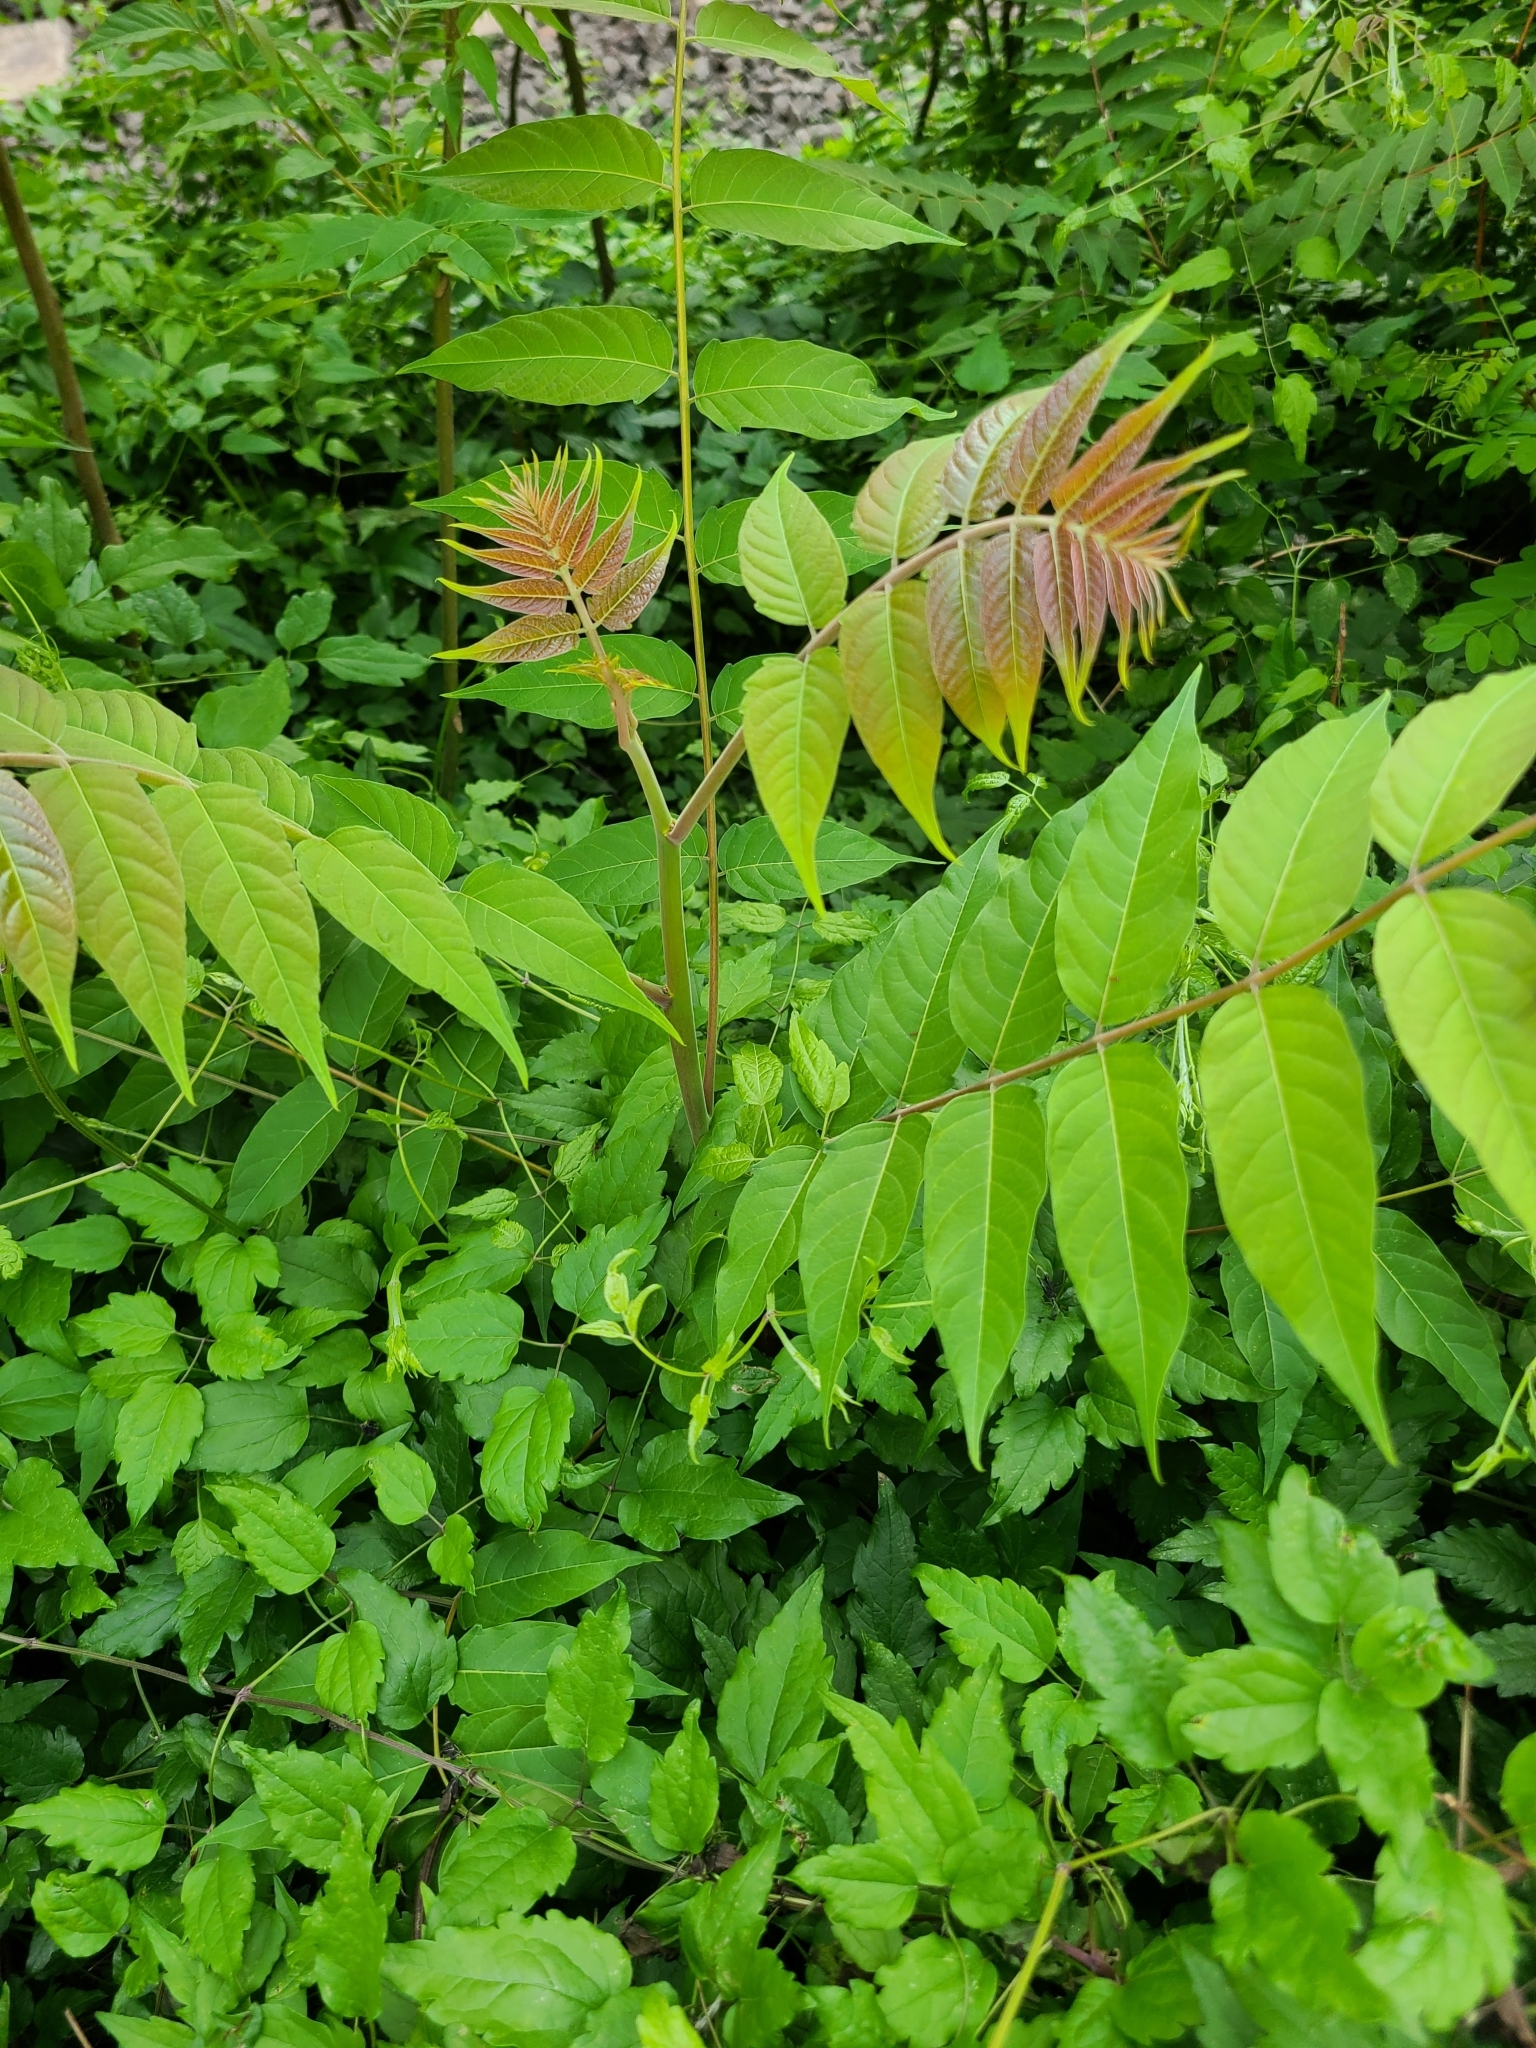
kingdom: Plantae
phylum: Tracheophyta
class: Magnoliopsida
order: Sapindales
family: Simaroubaceae
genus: Ailanthus
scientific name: Ailanthus altissima
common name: Tree-of-heaven
